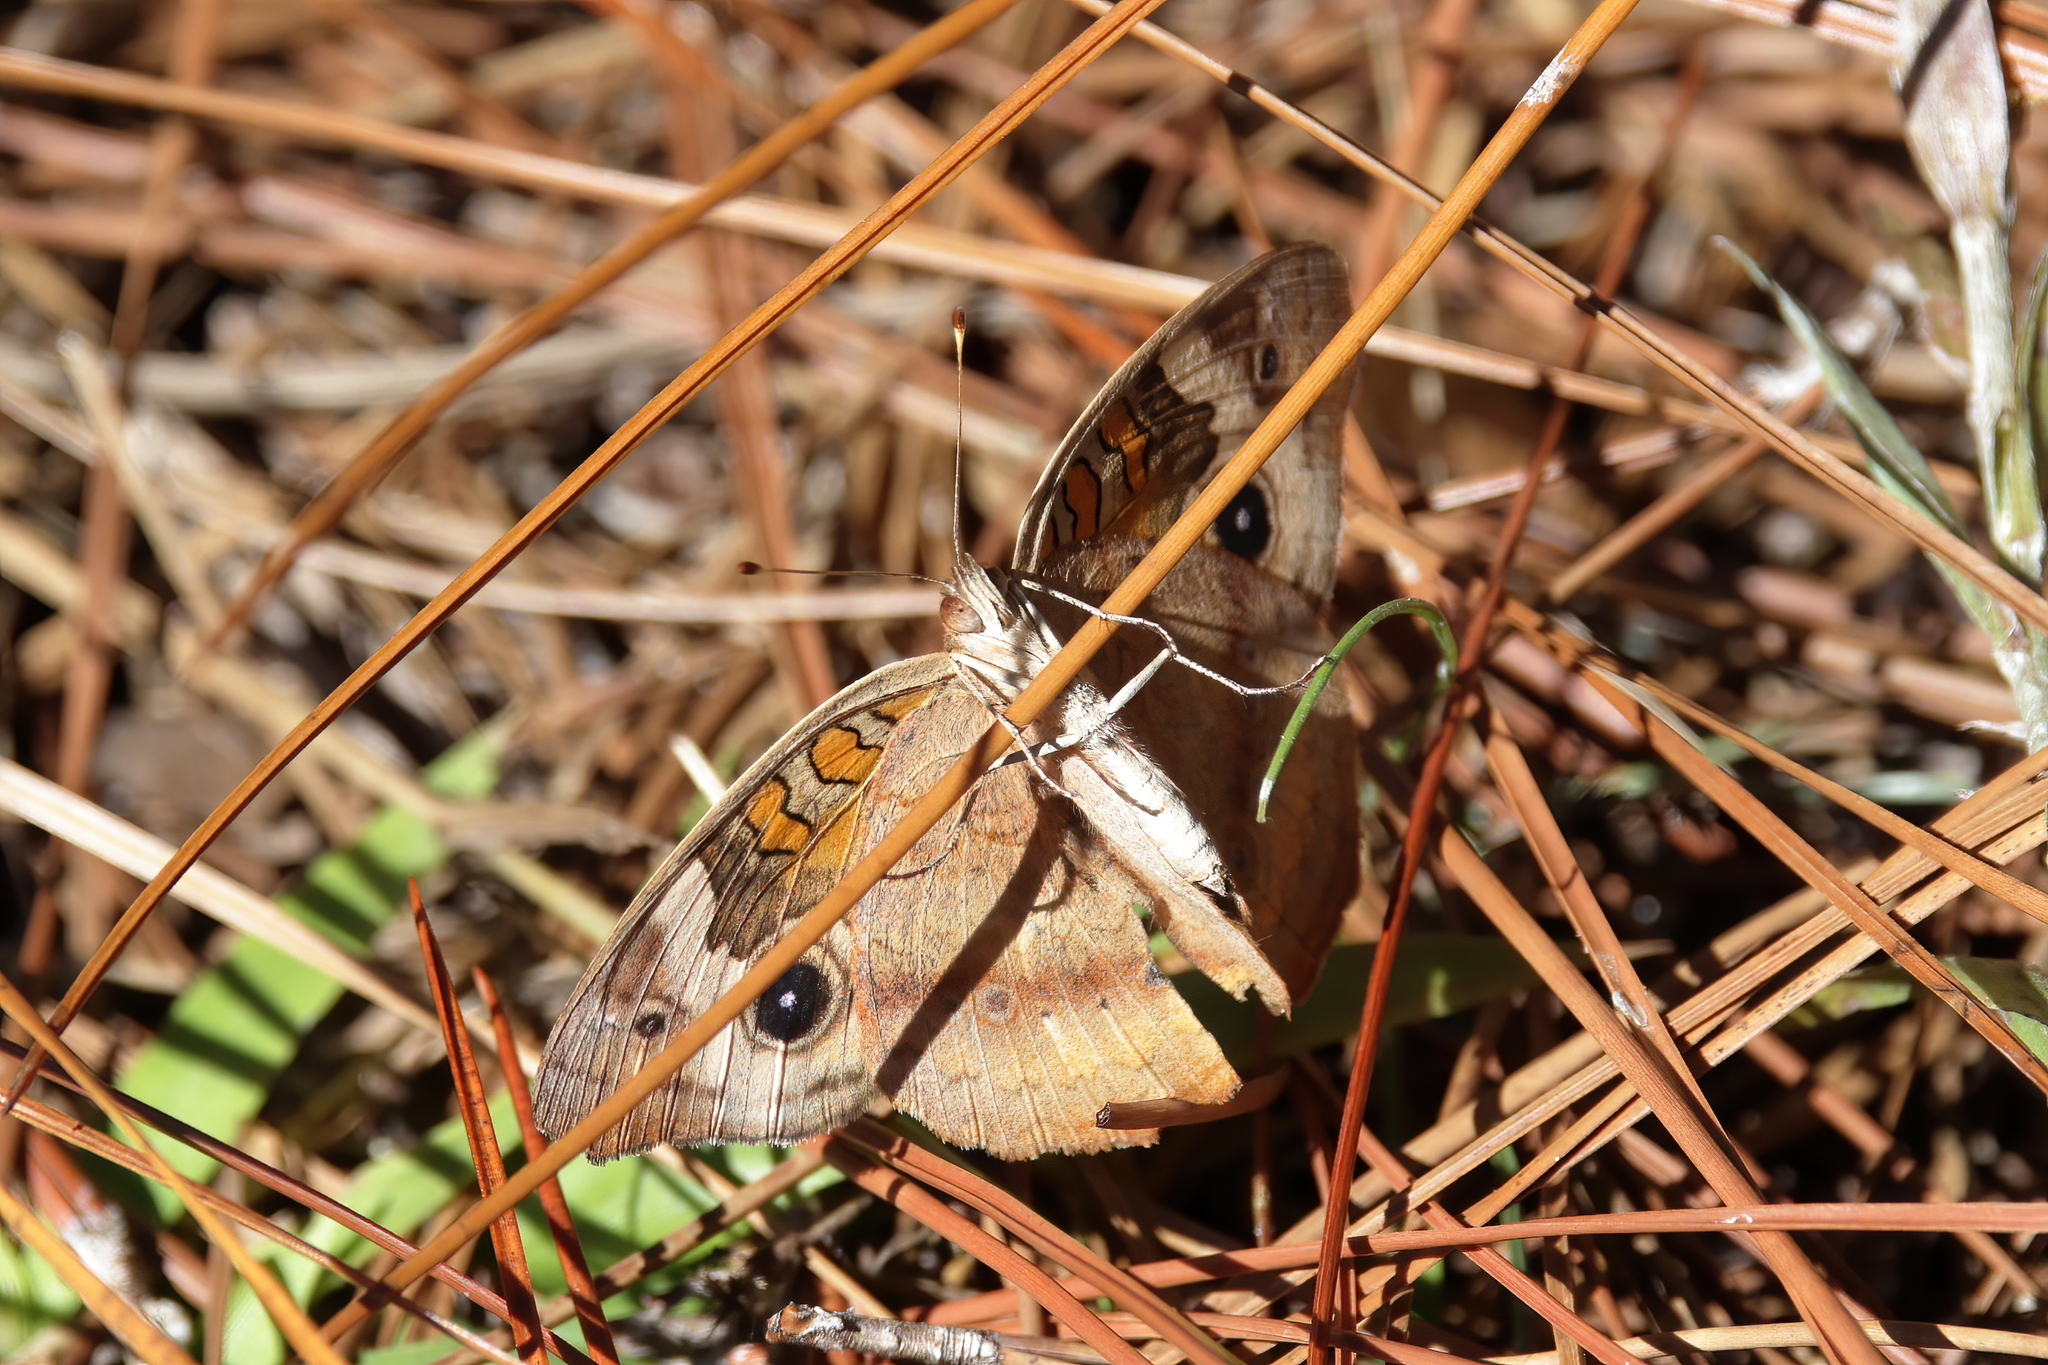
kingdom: Animalia
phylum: Arthropoda
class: Insecta
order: Lepidoptera
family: Nymphalidae
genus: Junonia
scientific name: Junonia coenia
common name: Common buckeye
